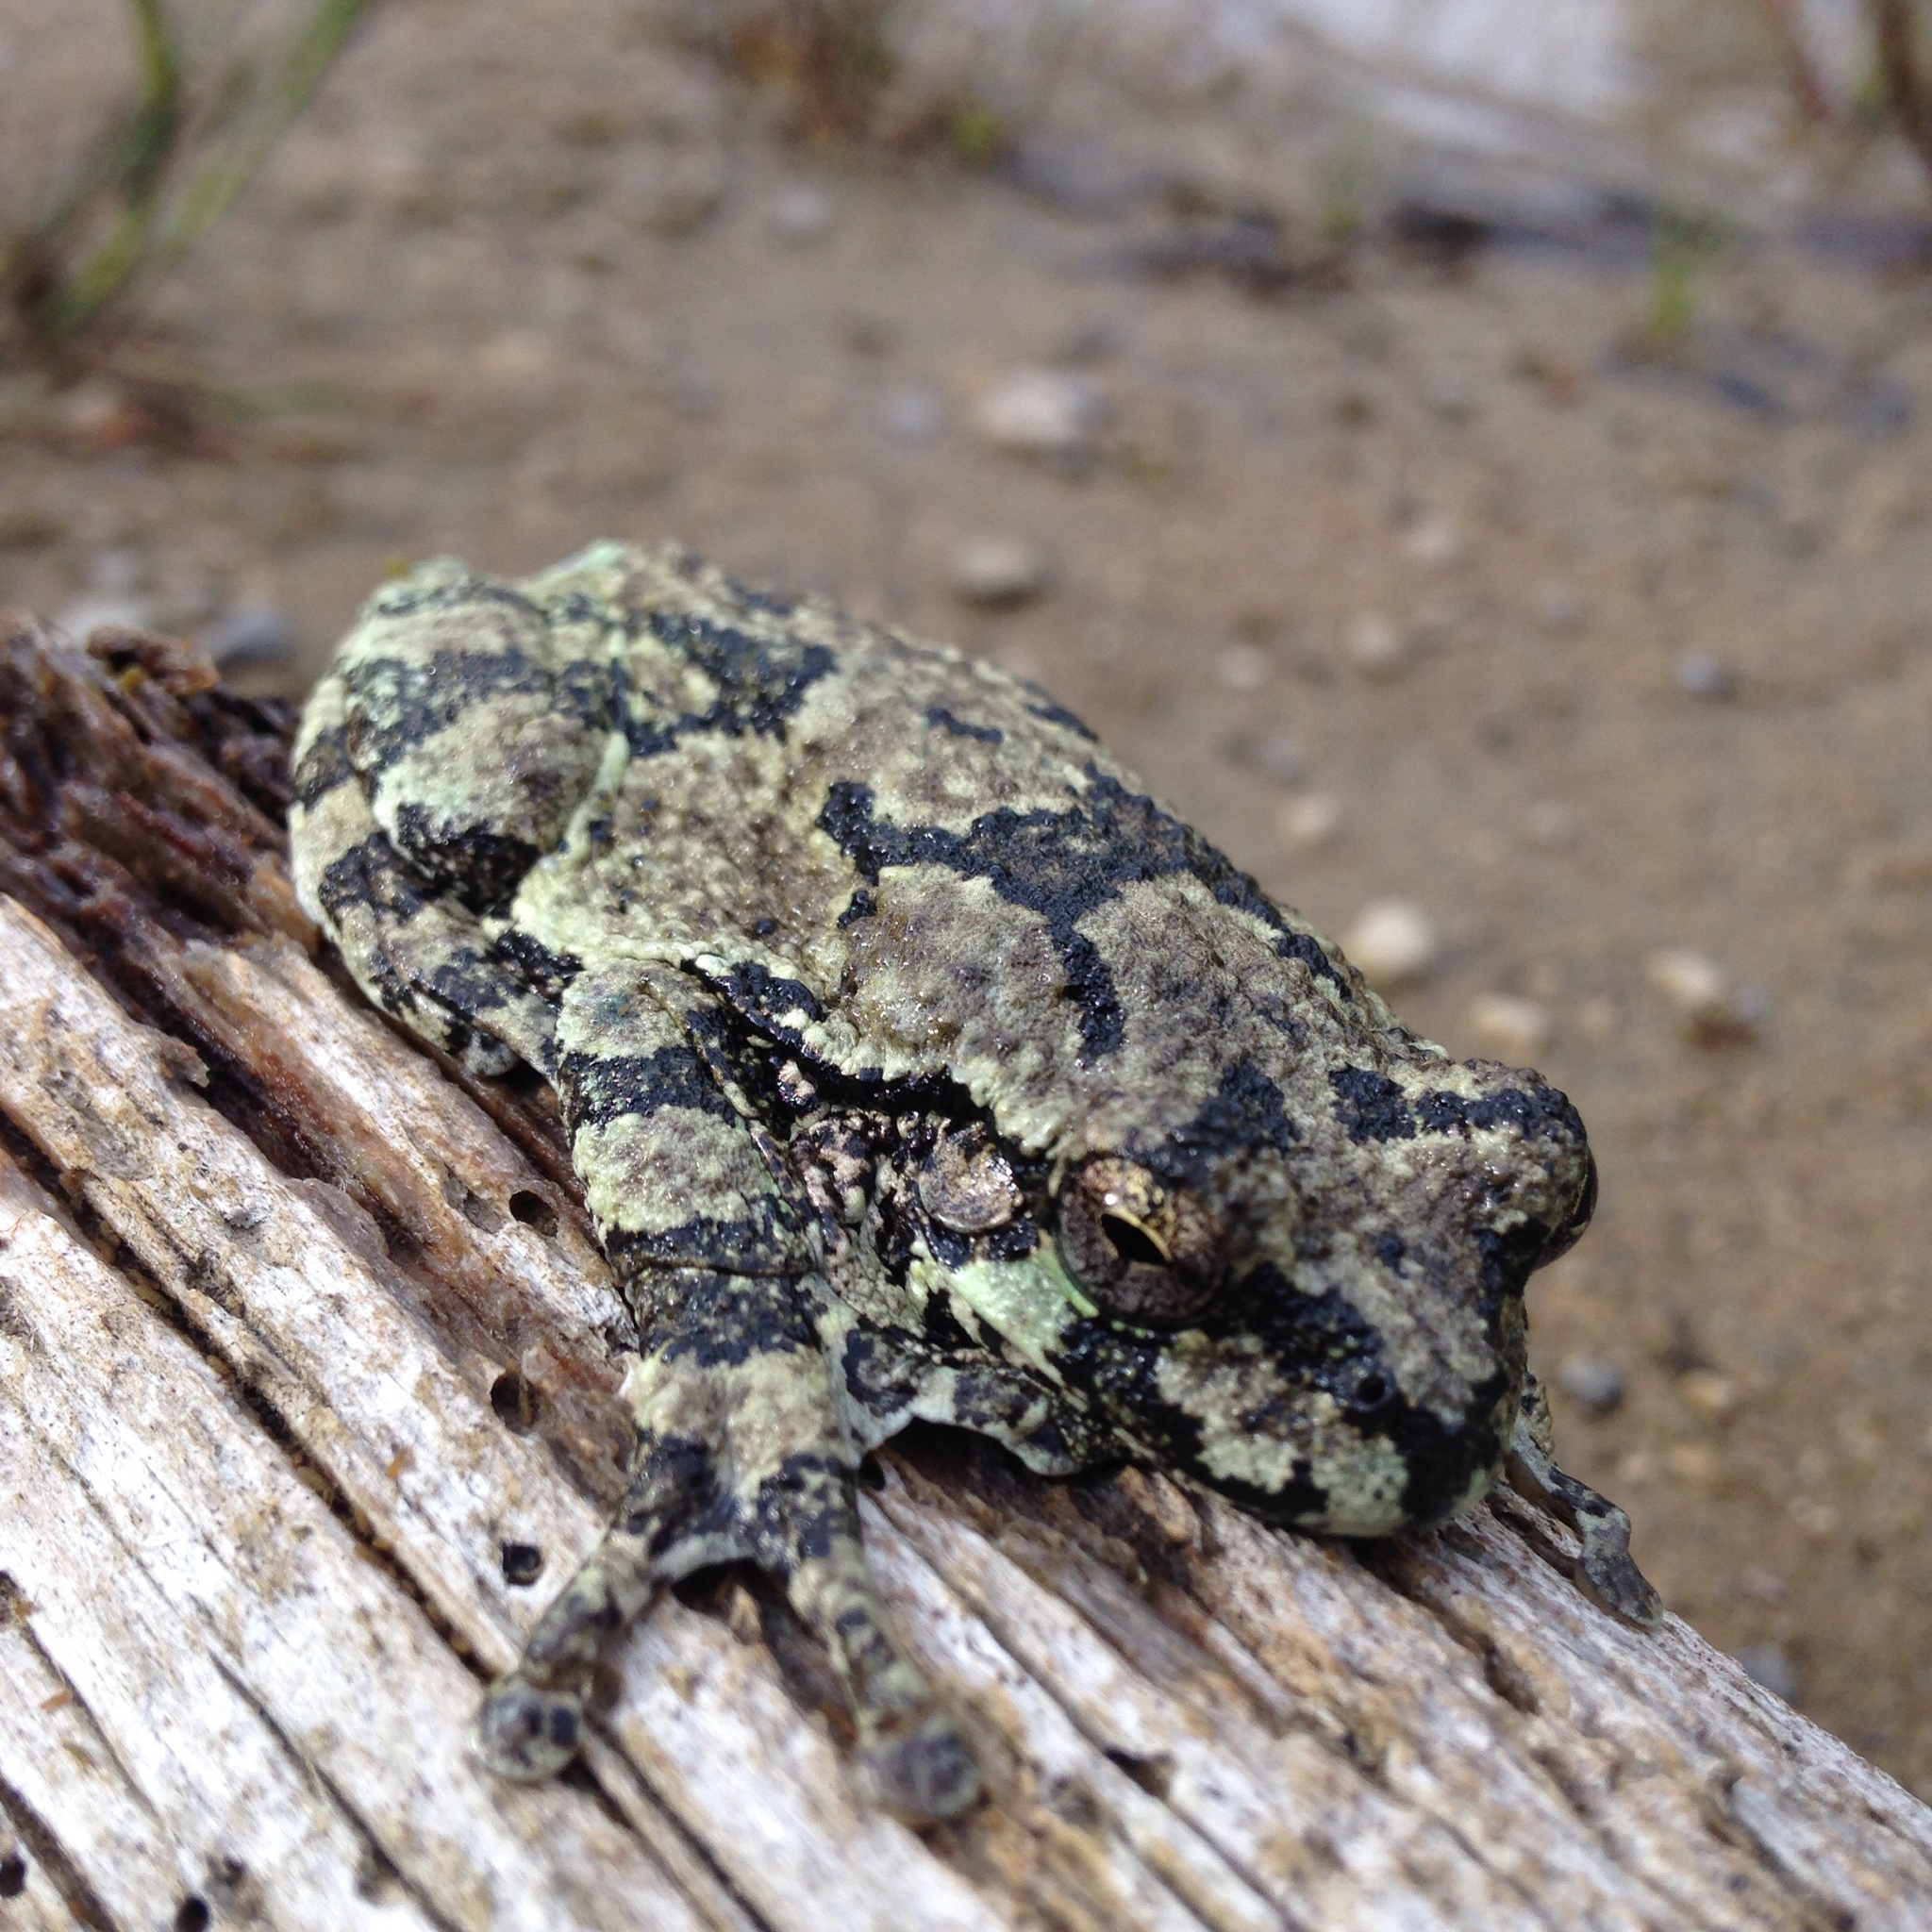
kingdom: Animalia
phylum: Chordata
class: Amphibia
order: Anura
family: Hylidae
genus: Dryophytes
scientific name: Dryophytes versicolor
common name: Gray treefrog
